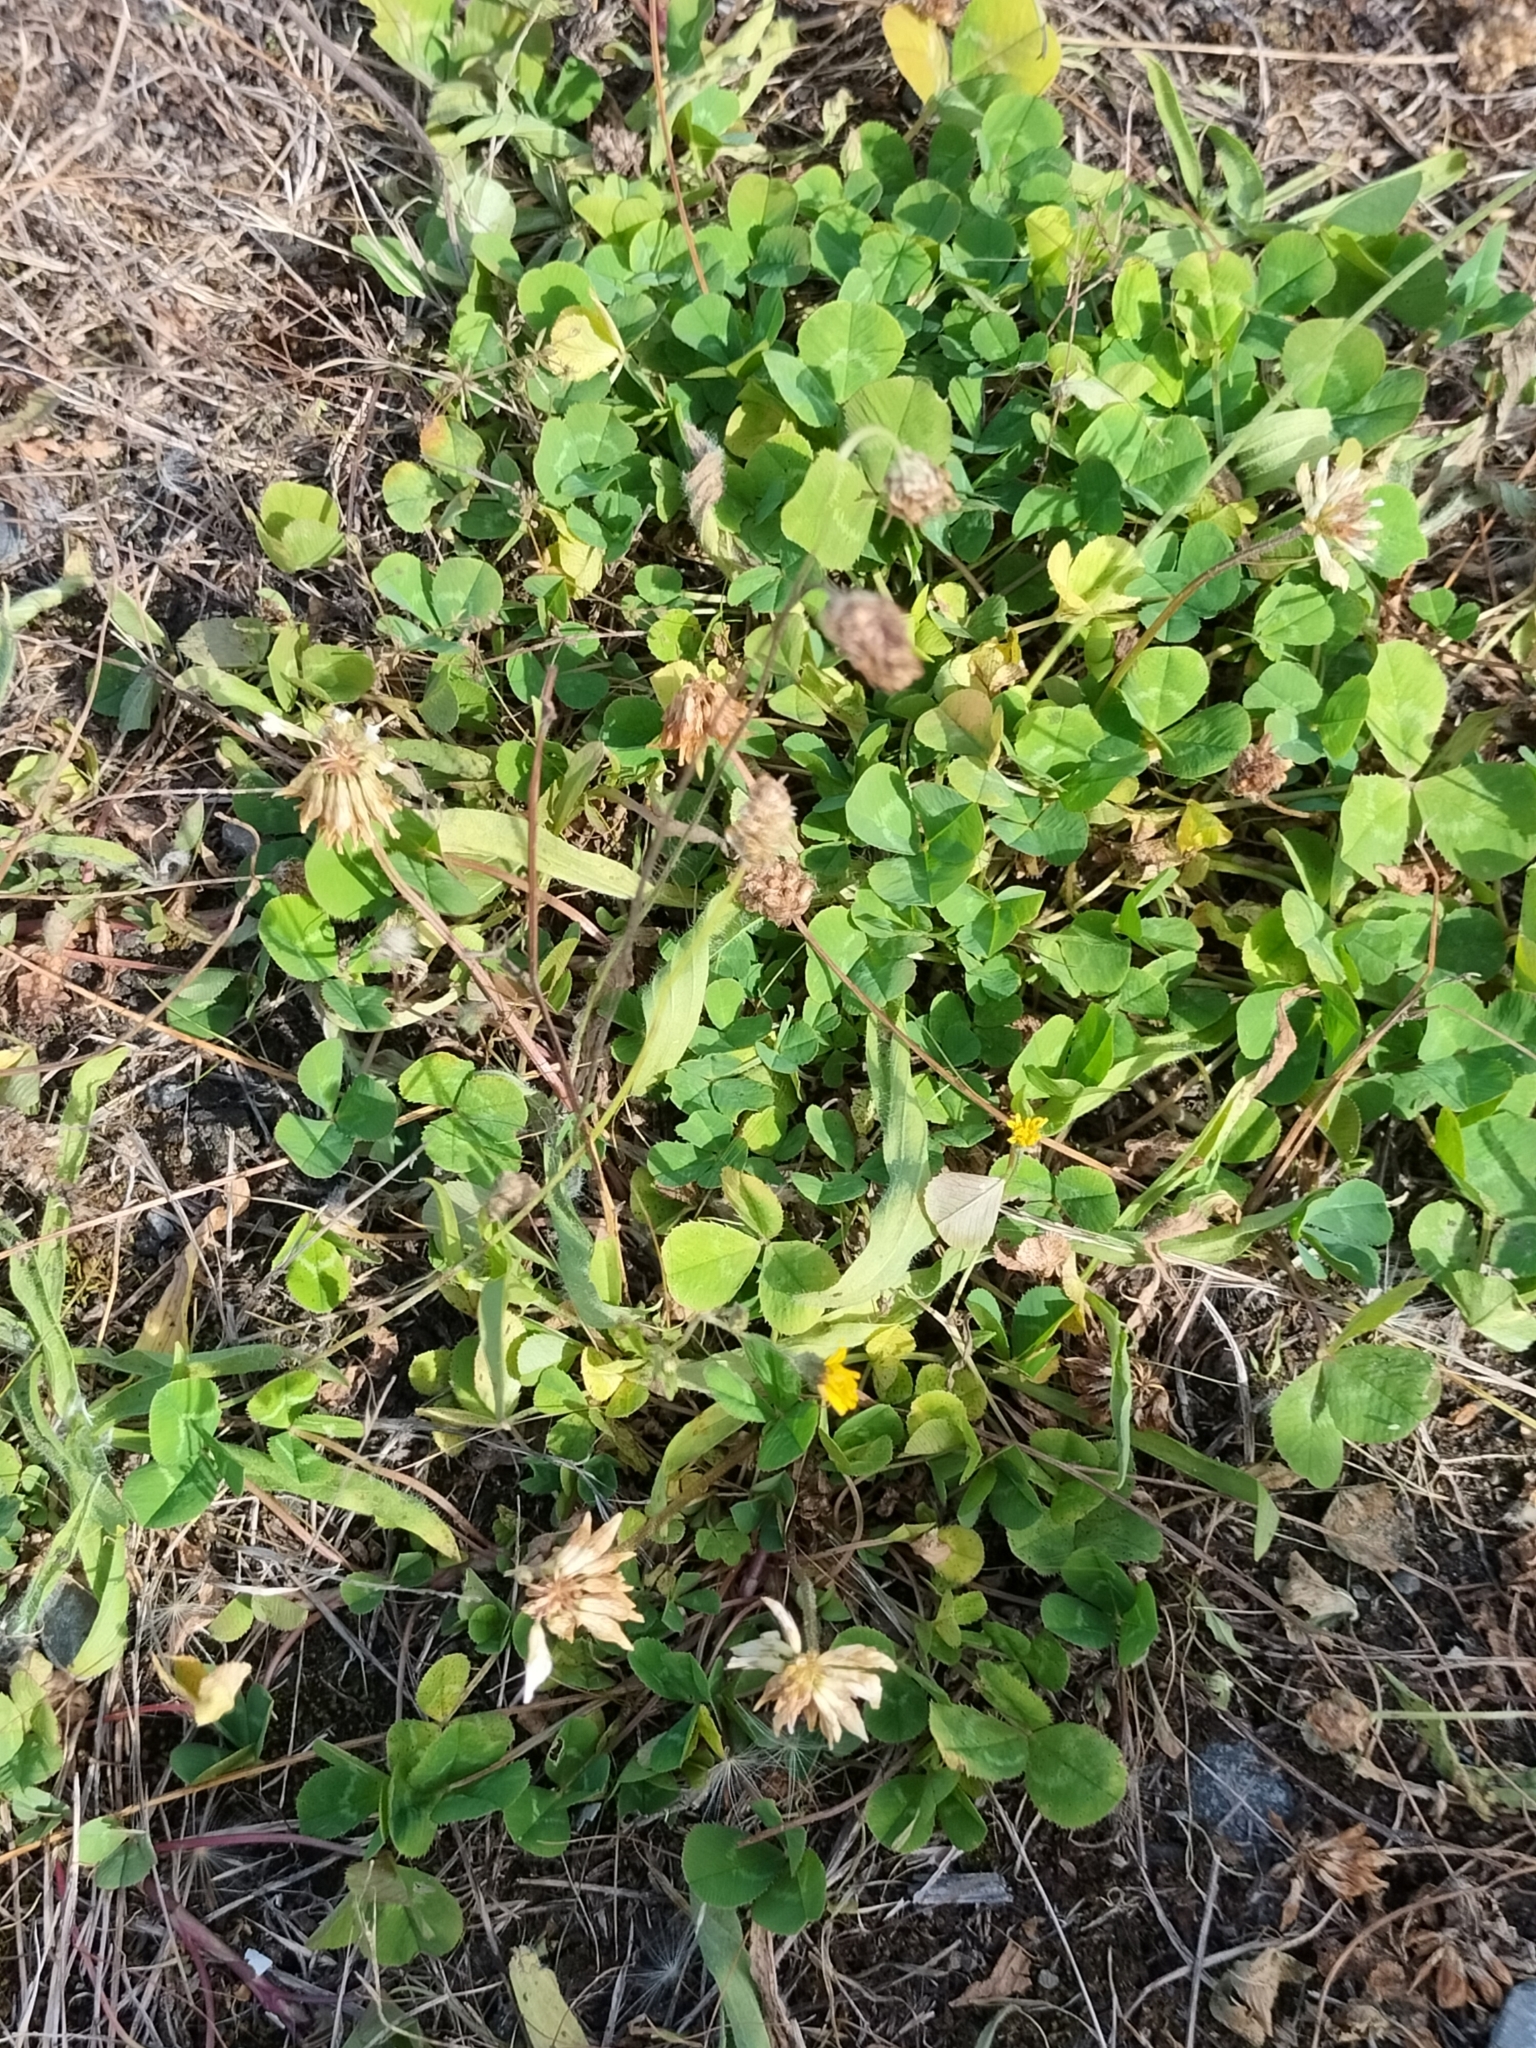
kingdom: Plantae
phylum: Tracheophyta
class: Magnoliopsida
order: Fabales
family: Fabaceae
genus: Trifolium
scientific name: Trifolium repens
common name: White clover
